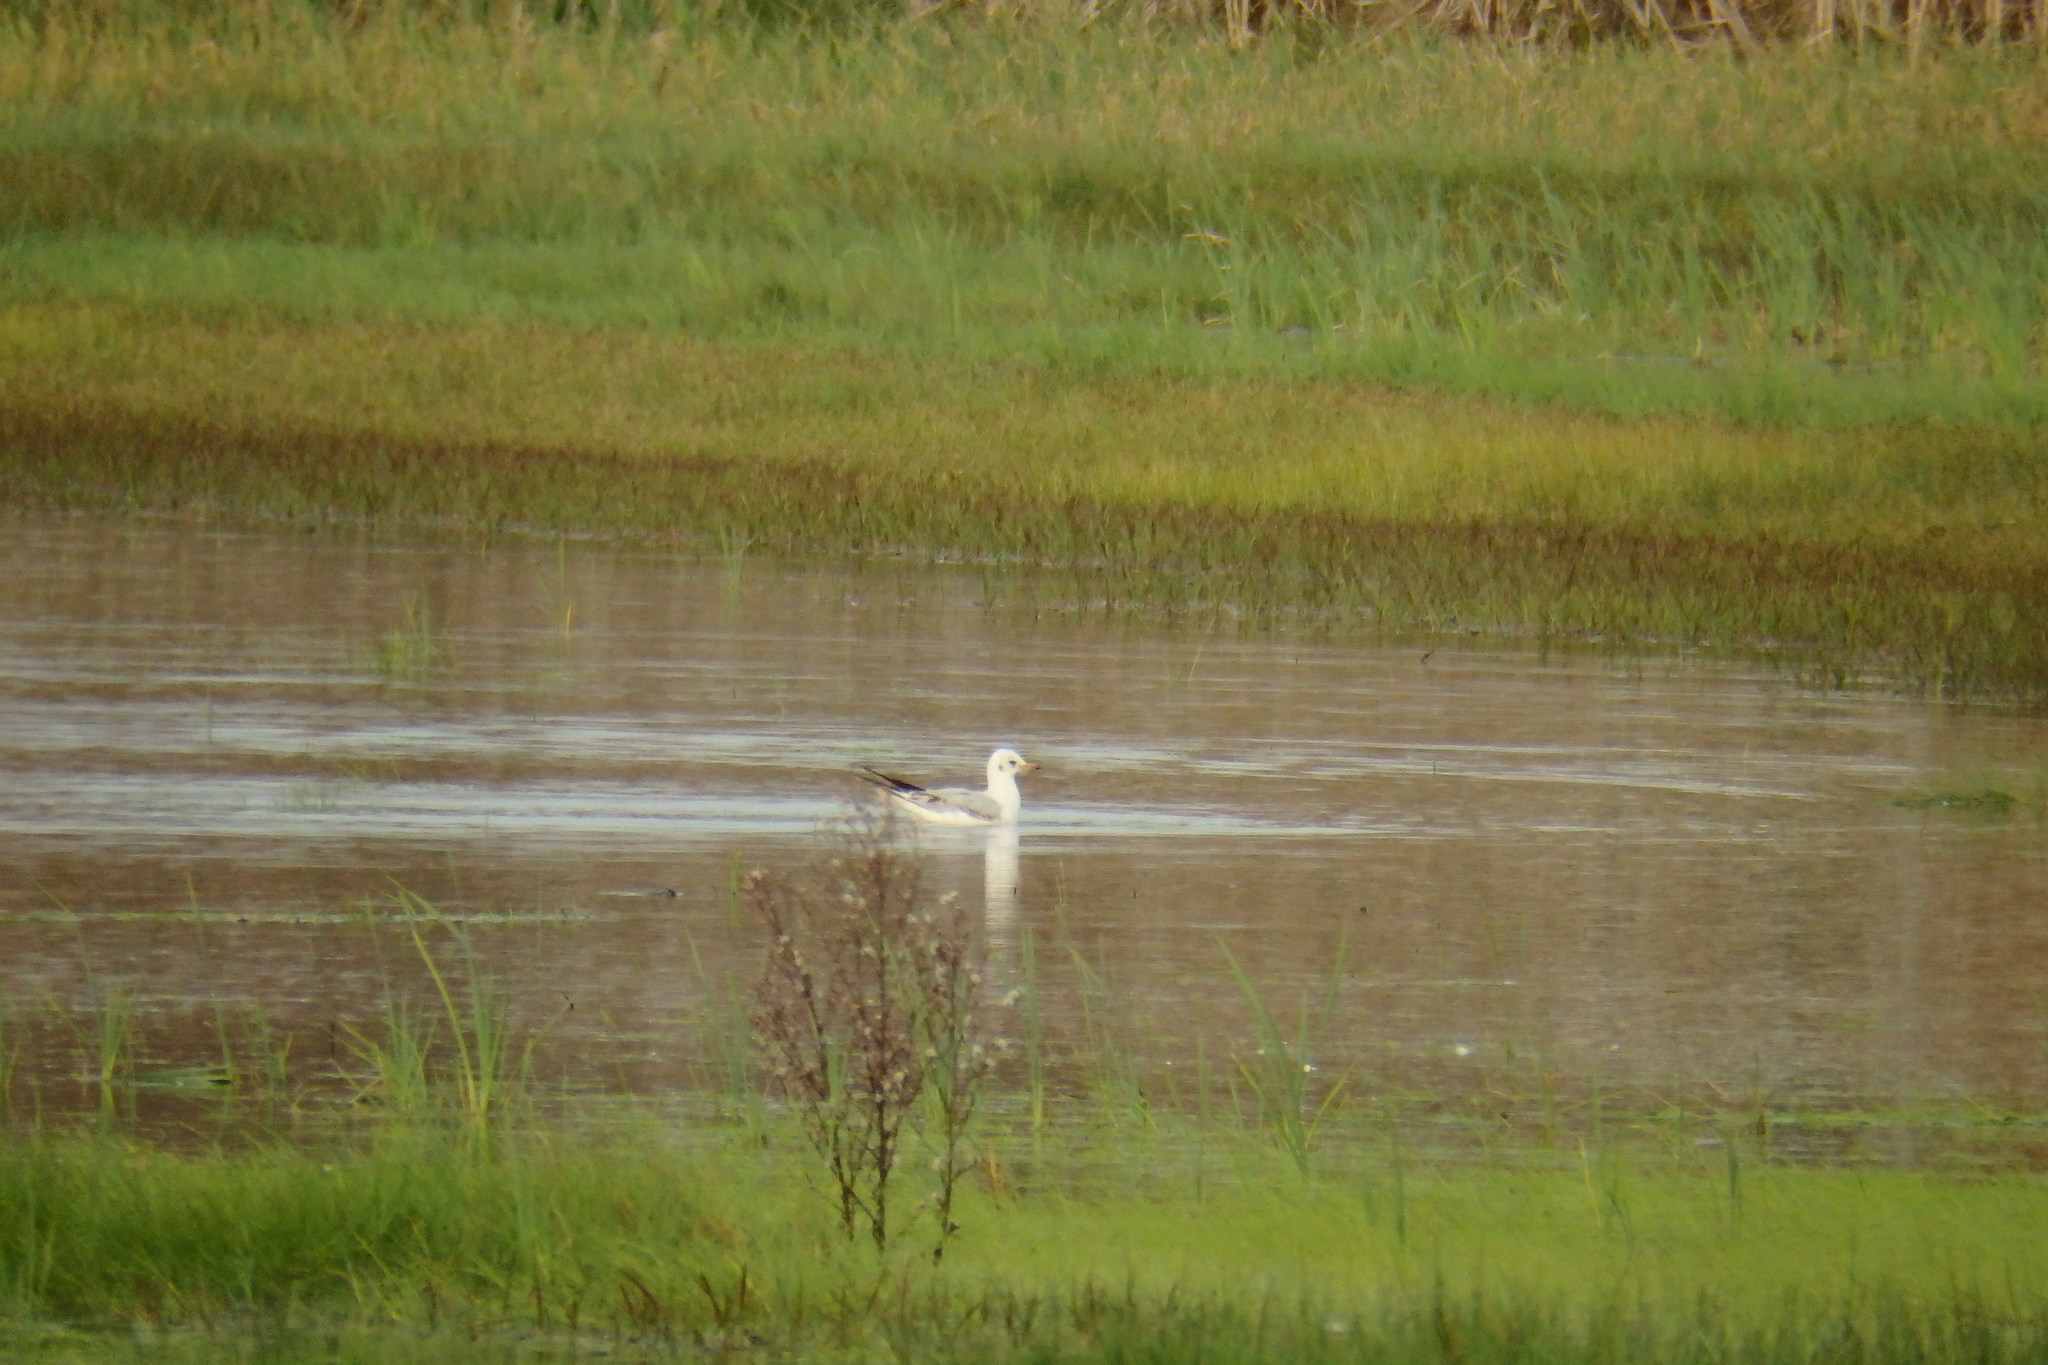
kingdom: Animalia
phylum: Chordata
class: Aves
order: Charadriiformes
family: Laridae
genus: Chroicocephalus
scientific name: Chroicocephalus ridibundus
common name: Black-headed gull
